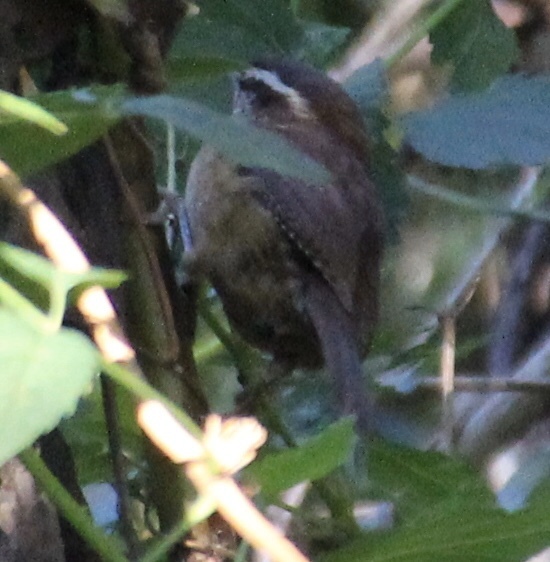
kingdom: Animalia
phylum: Chordata
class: Aves
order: Passeriformes
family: Troglodytidae
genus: Thryothorus
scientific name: Thryothorus ludovicianus
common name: Carolina wren
